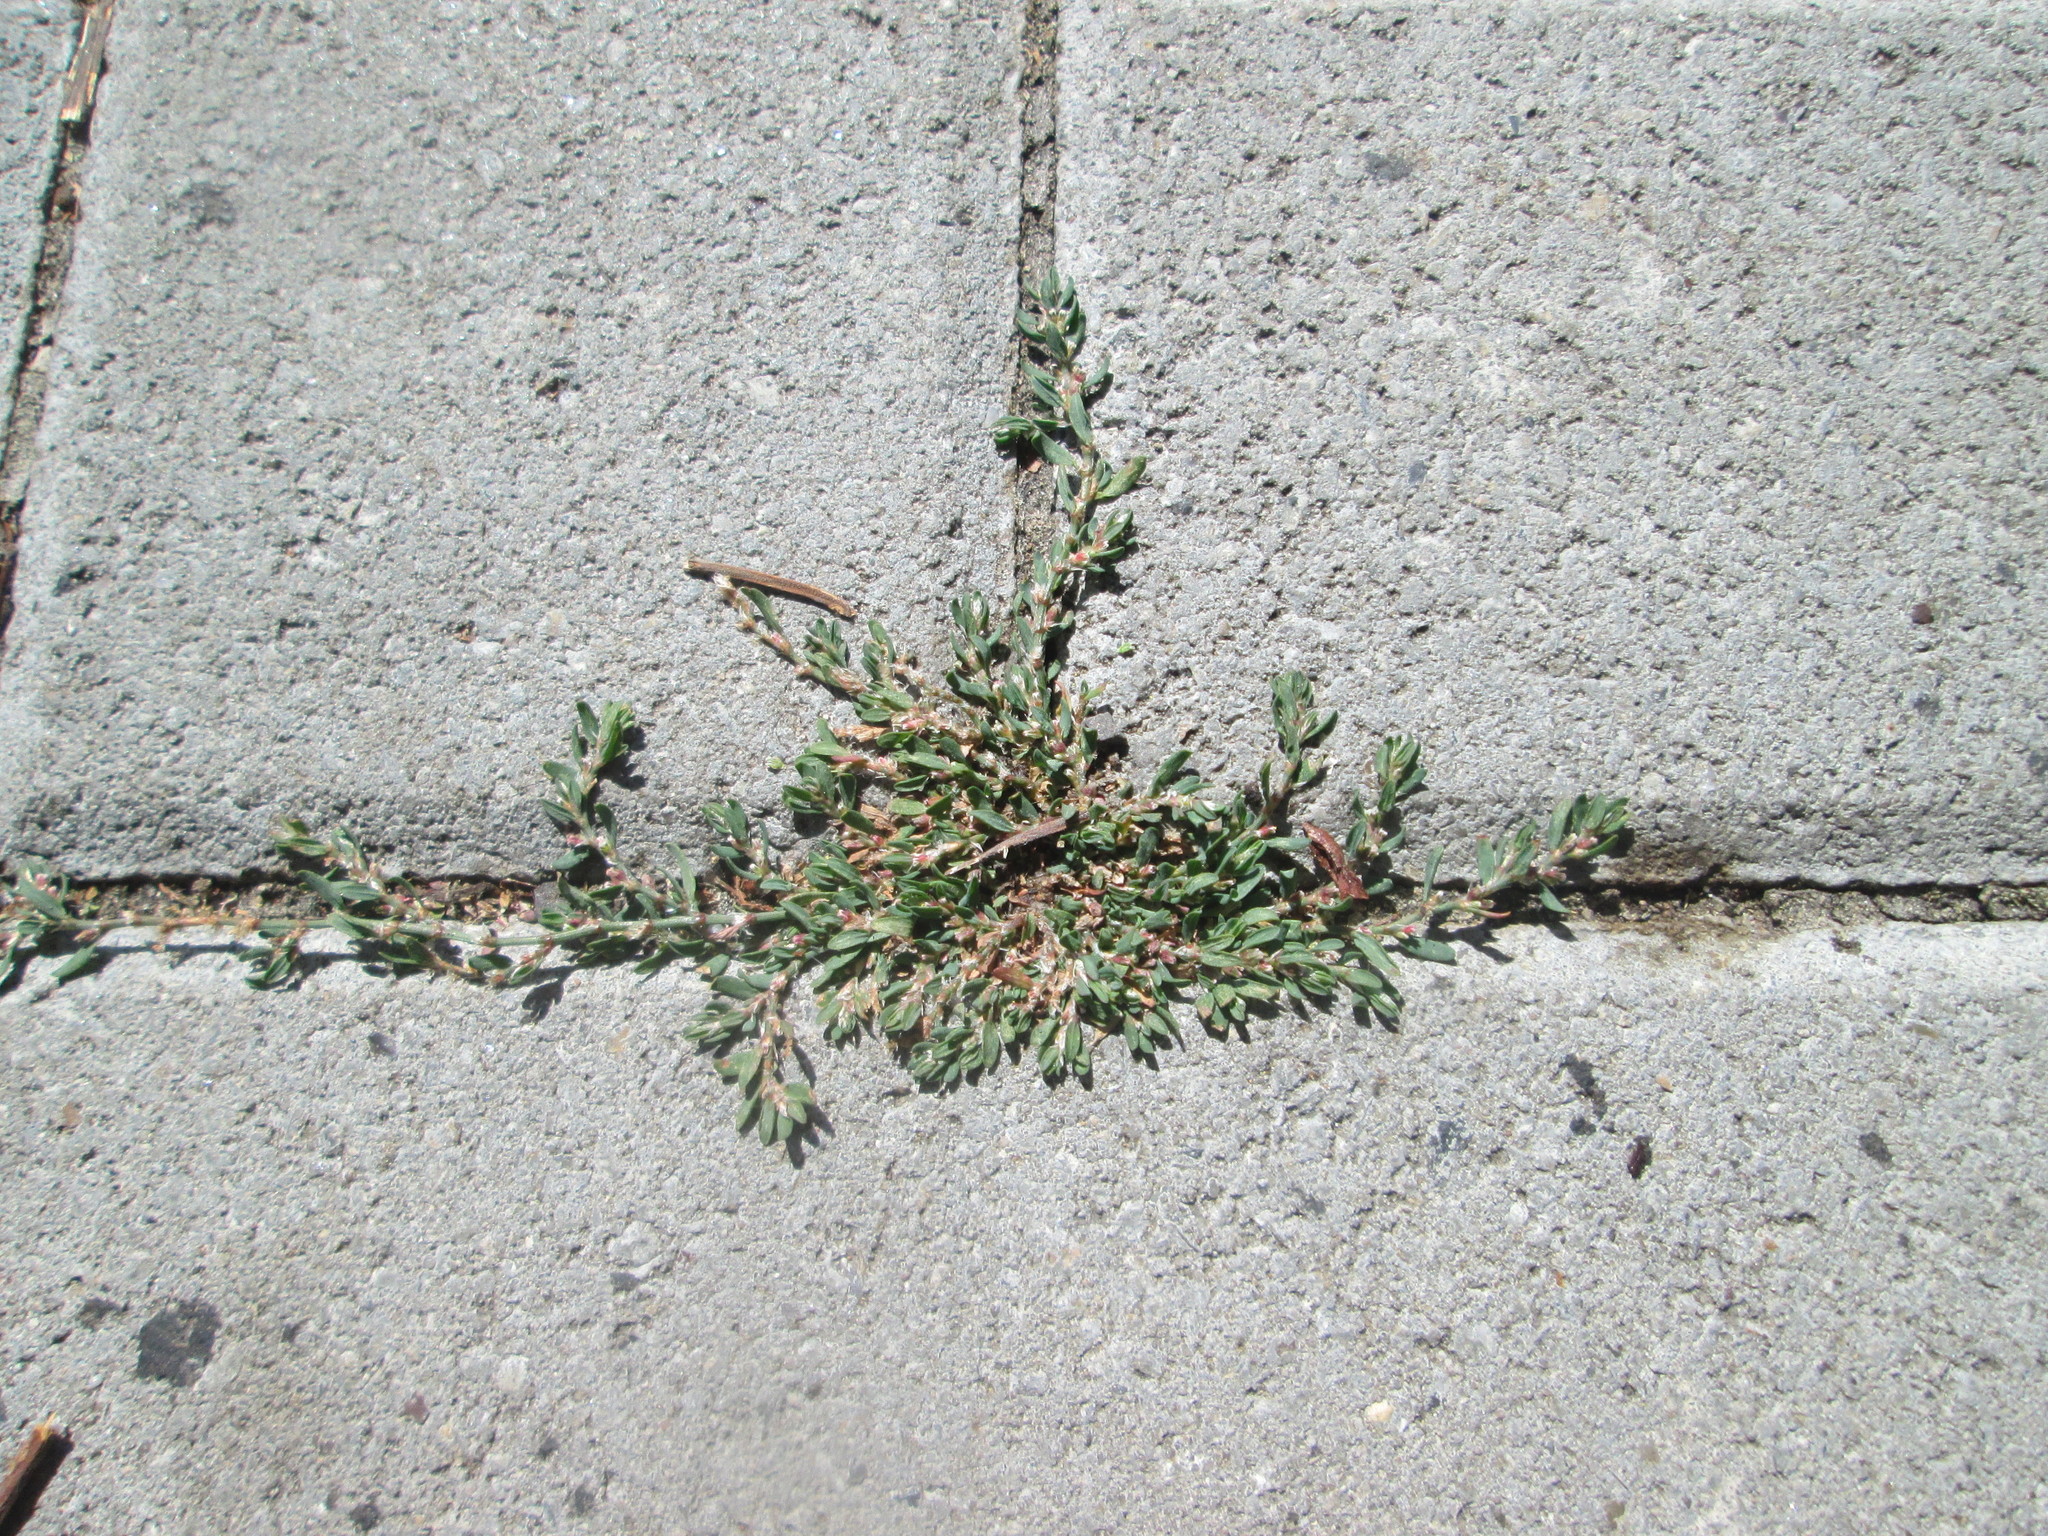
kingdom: Plantae
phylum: Tracheophyta
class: Magnoliopsida
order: Caryophyllales
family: Polygonaceae
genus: Polygonum
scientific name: Polygonum arenastrum
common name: Equal-leaved knotgrass
